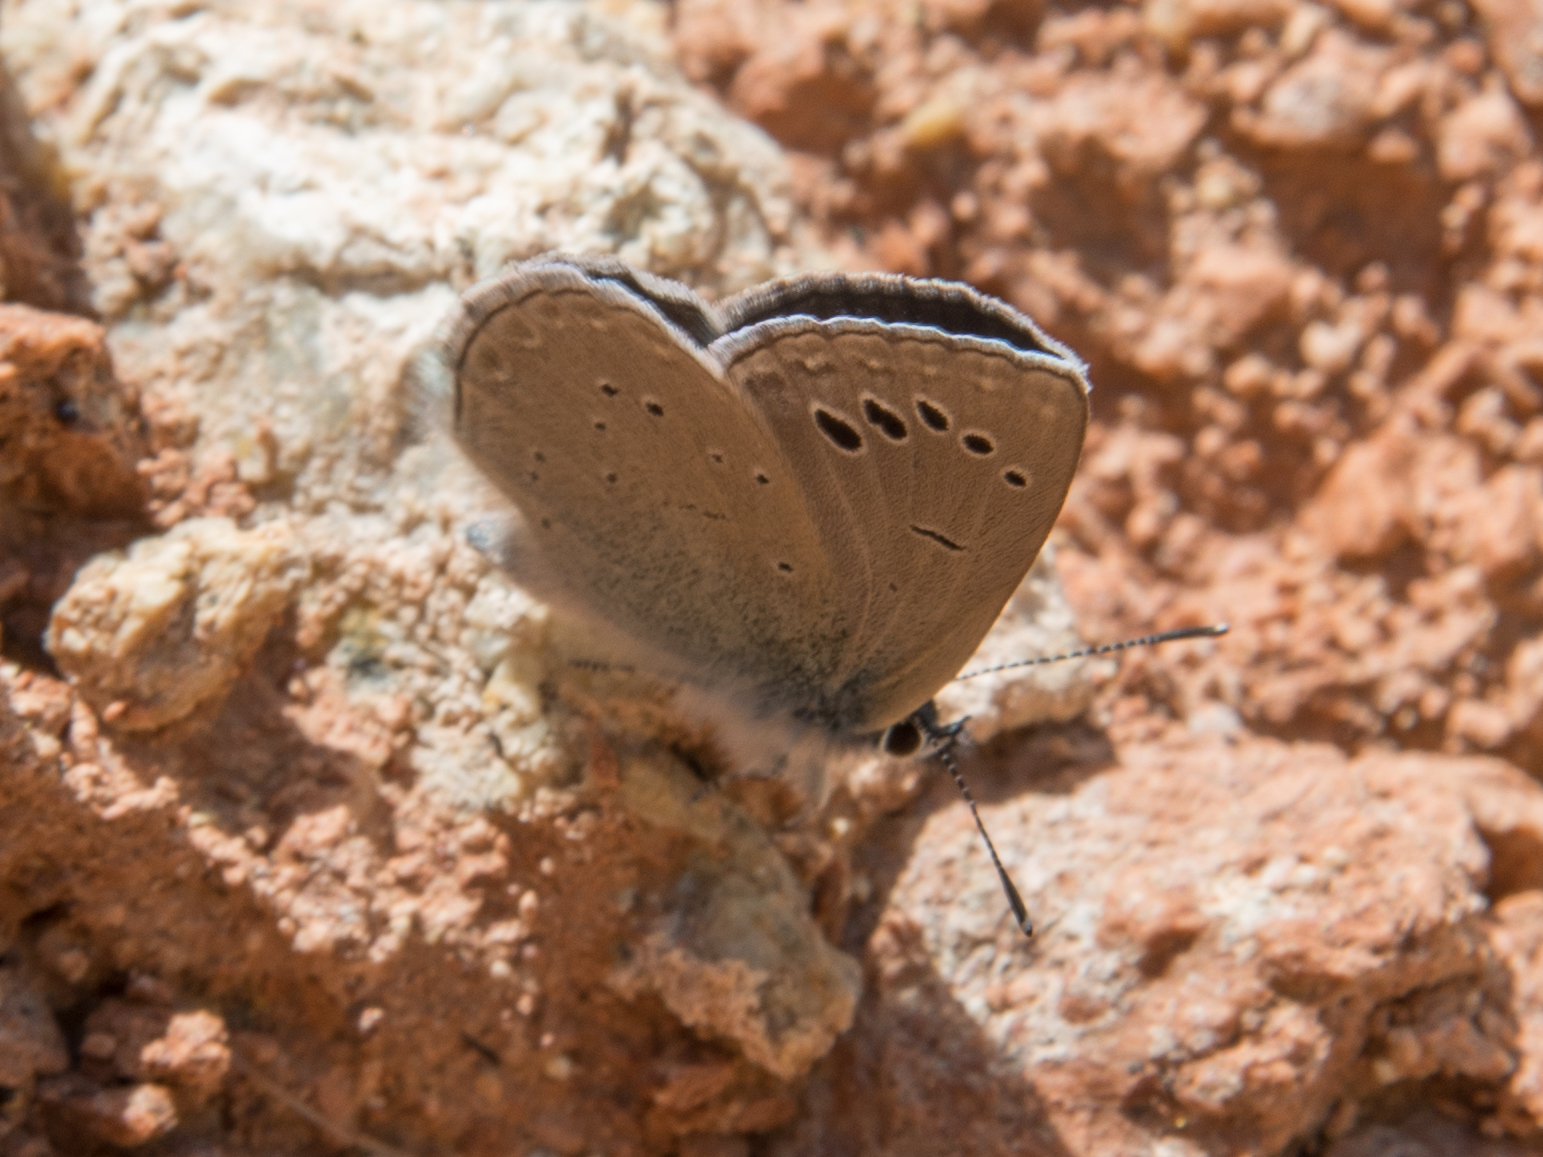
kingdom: Animalia
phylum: Arthropoda
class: Insecta
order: Lepidoptera
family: Lycaenidae
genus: Glaucopsyche
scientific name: Glaucopsyche melanops
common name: Black-eyed blue
